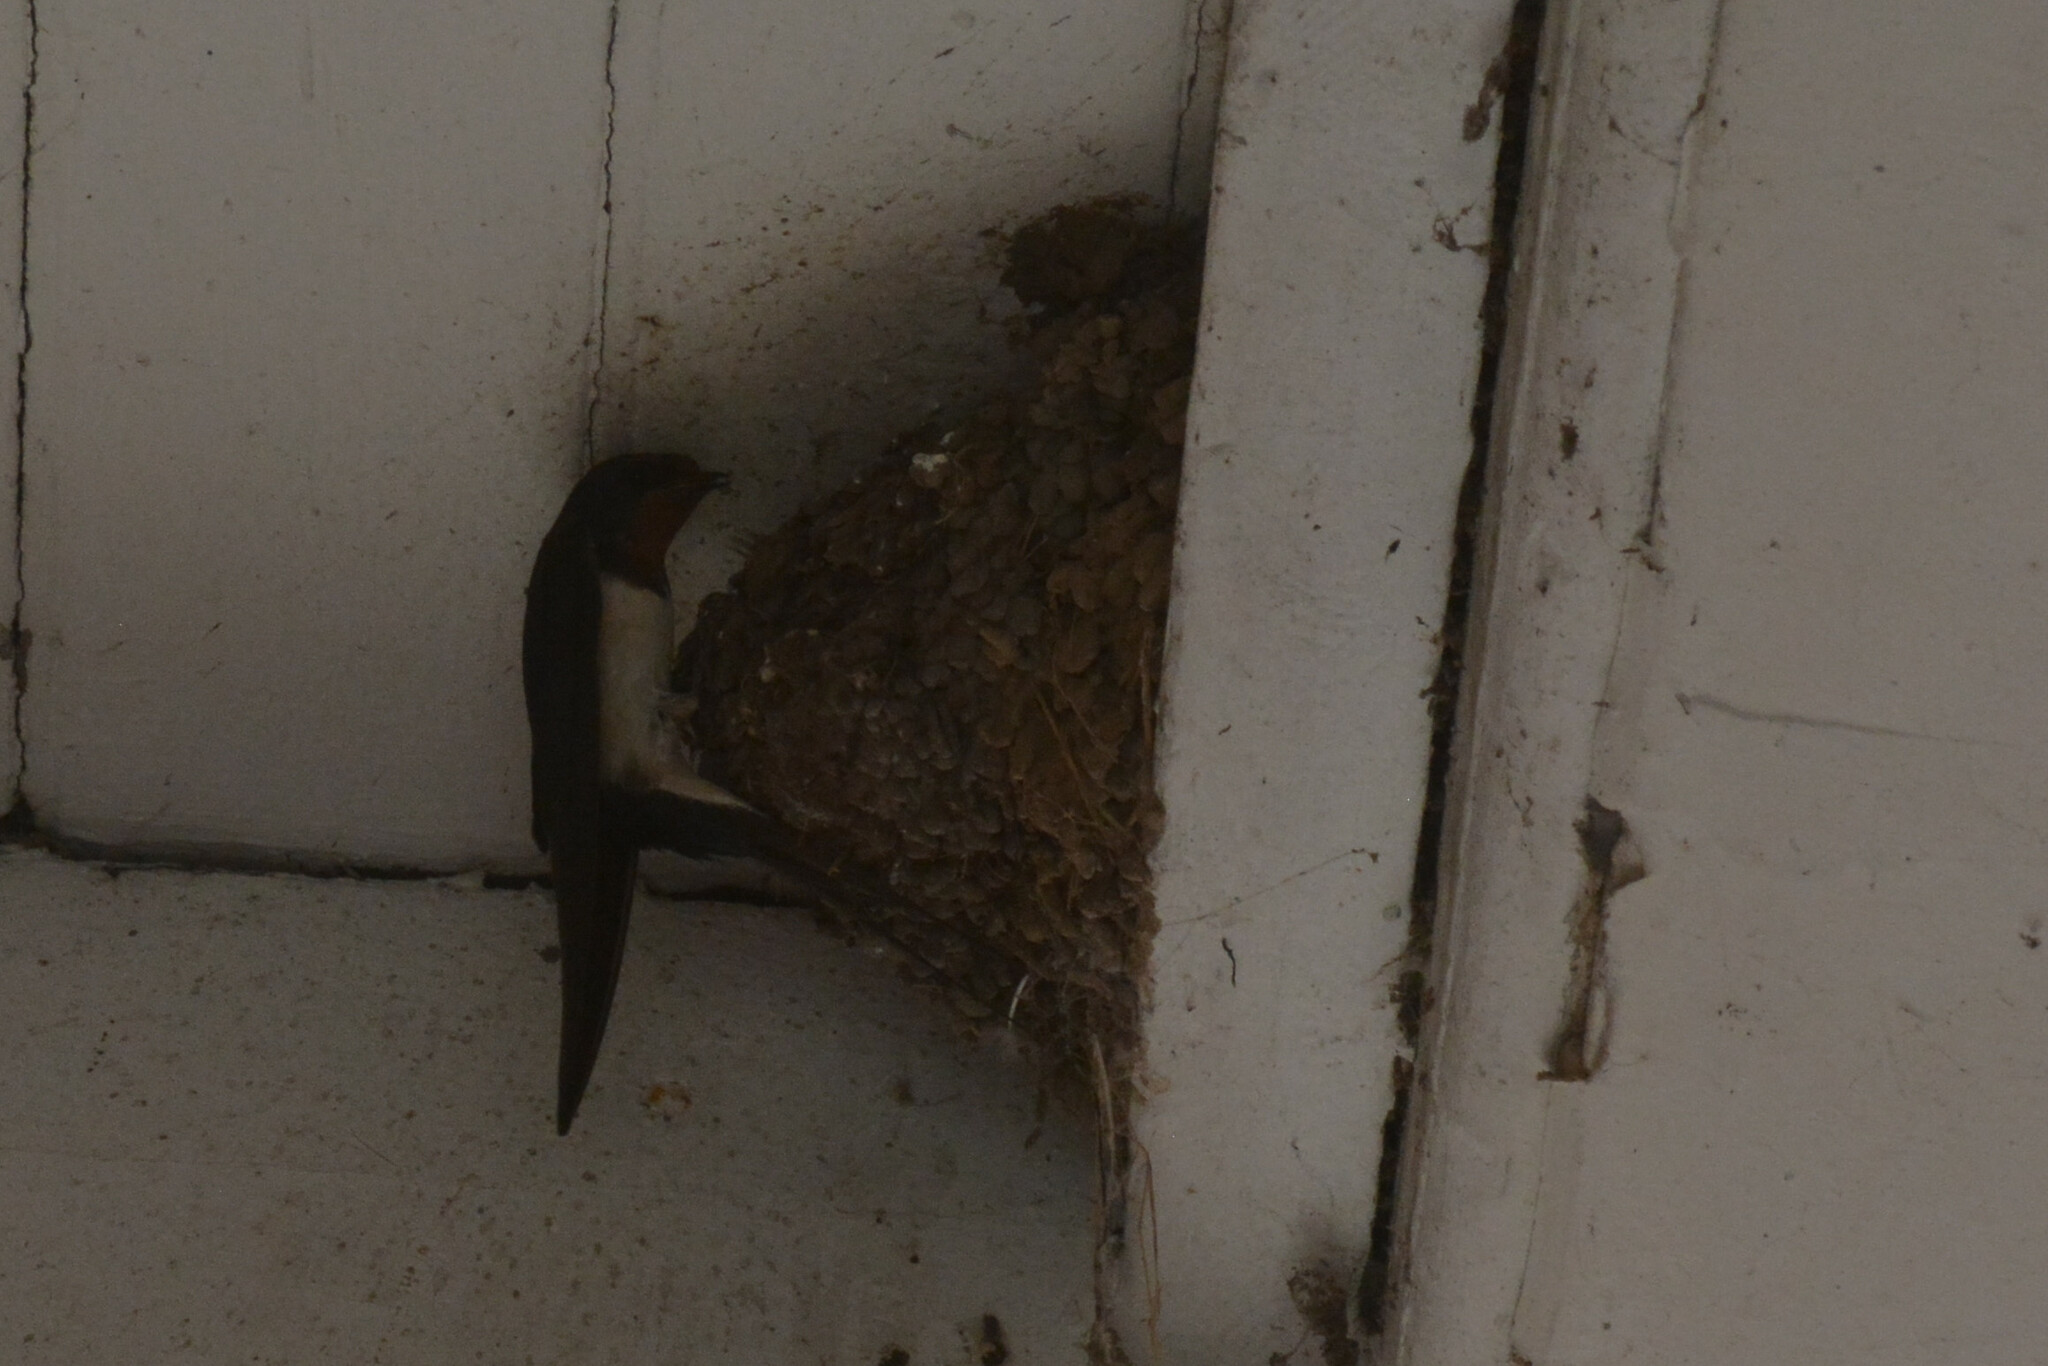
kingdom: Animalia
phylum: Chordata
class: Aves
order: Passeriformes
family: Hirundinidae
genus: Hirundo
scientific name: Hirundo rustica
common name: Barn swallow
